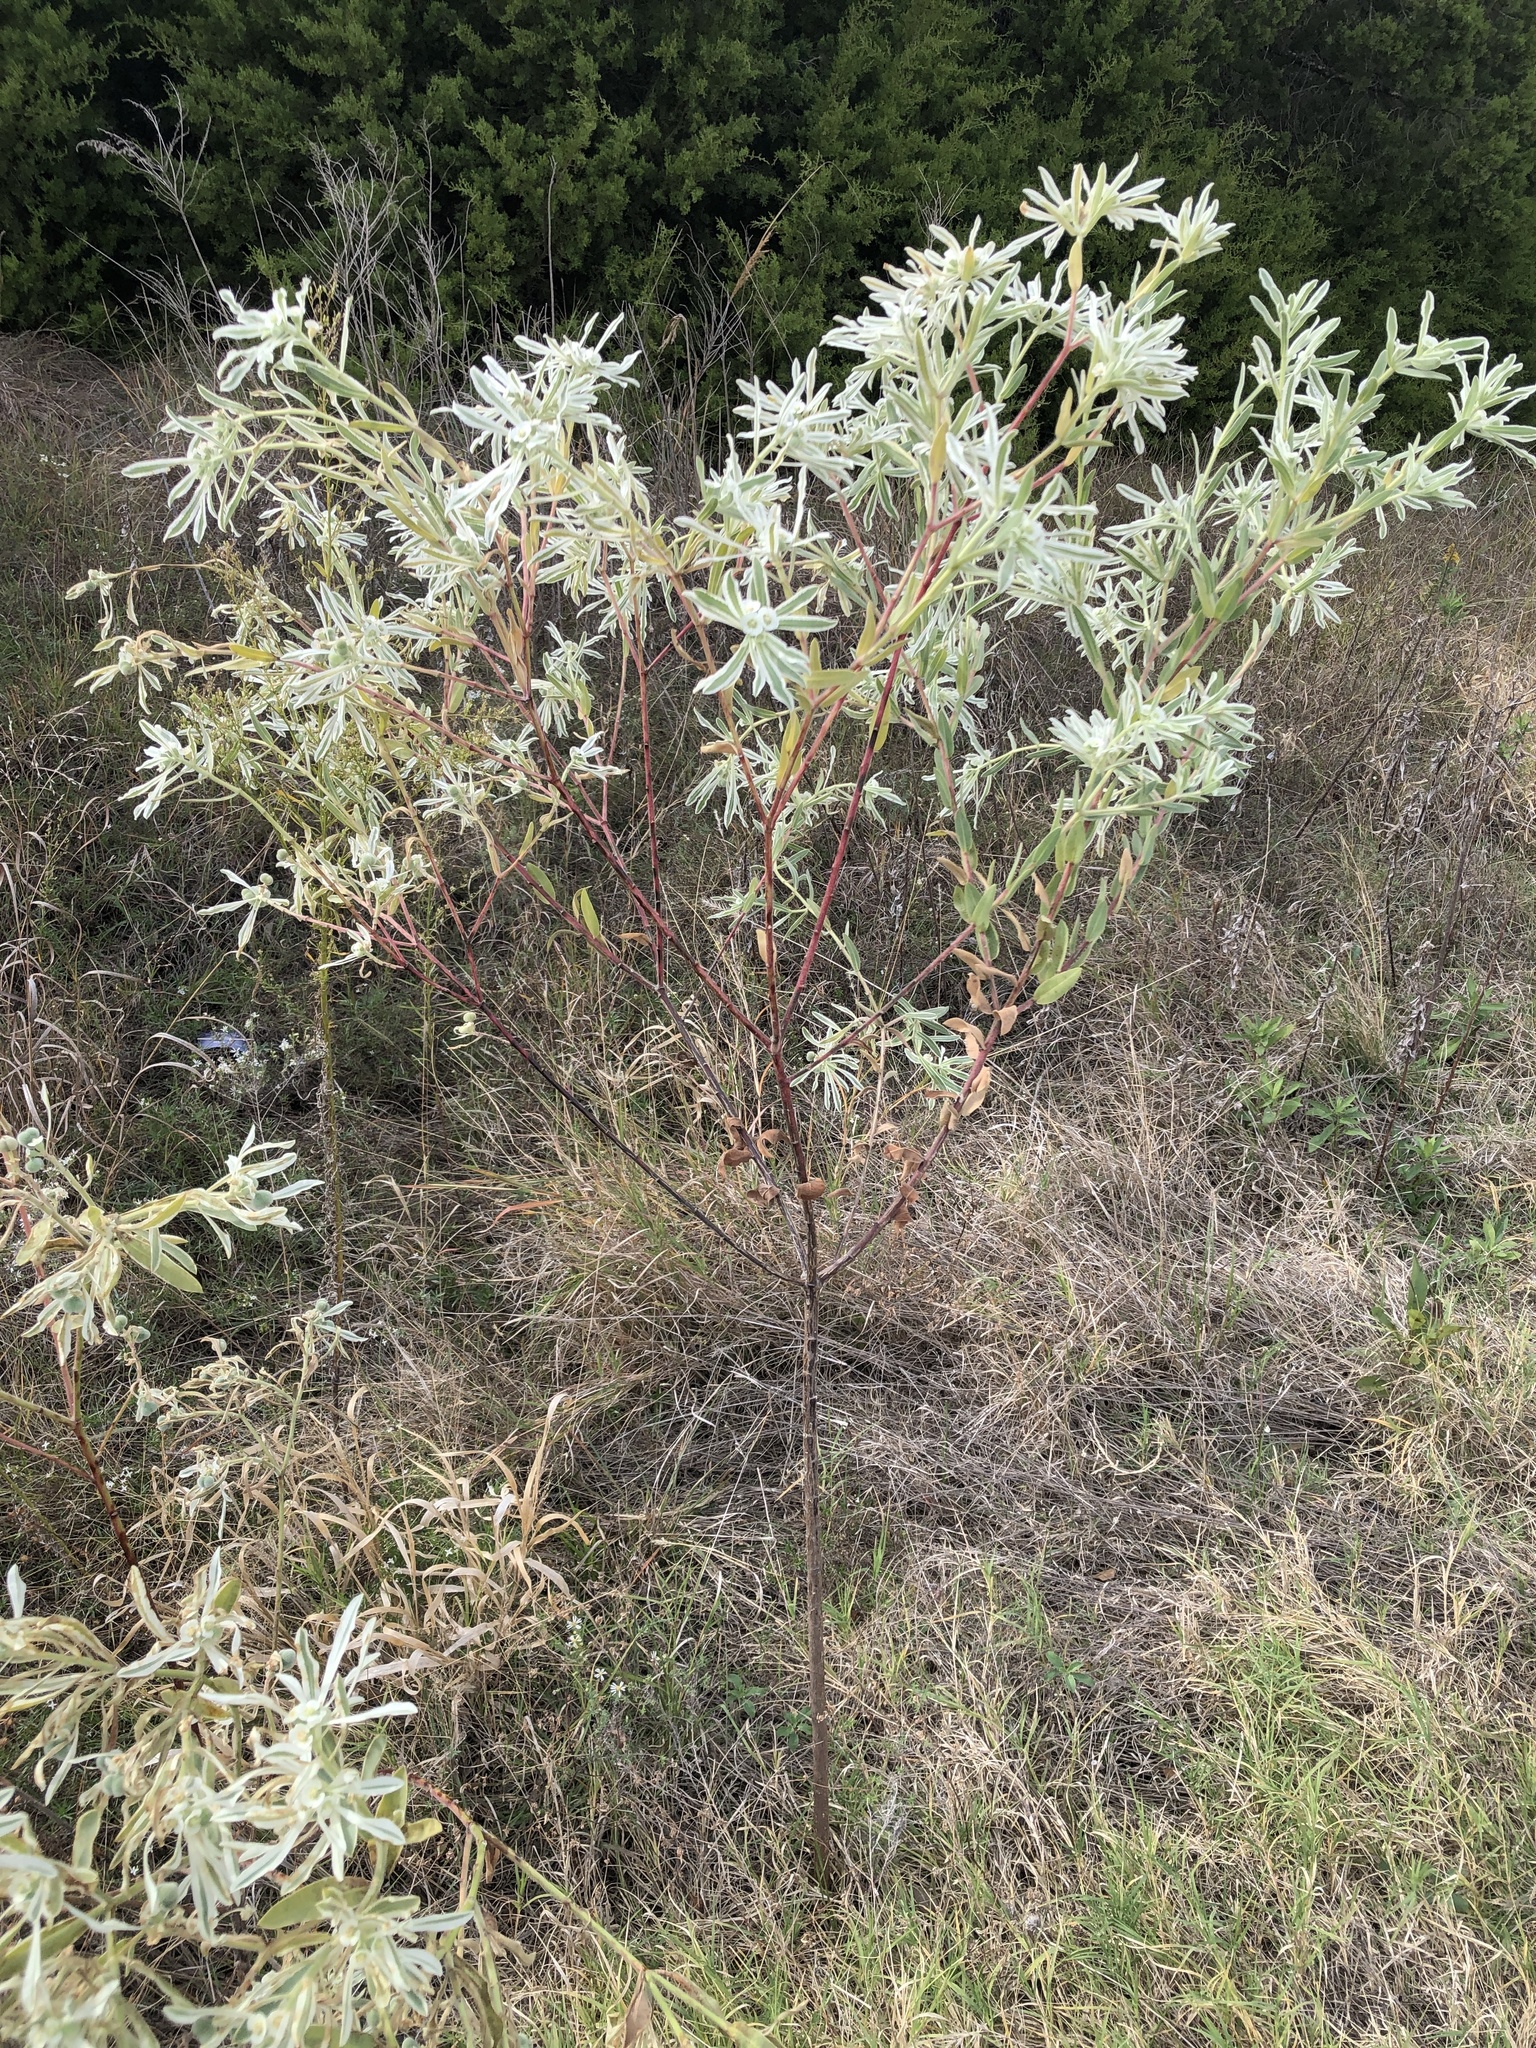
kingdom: Plantae
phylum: Tracheophyta
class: Magnoliopsida
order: Malpighiales
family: Euphorbiaceae
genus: Euphorbia
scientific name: Euphorbia bicolor
